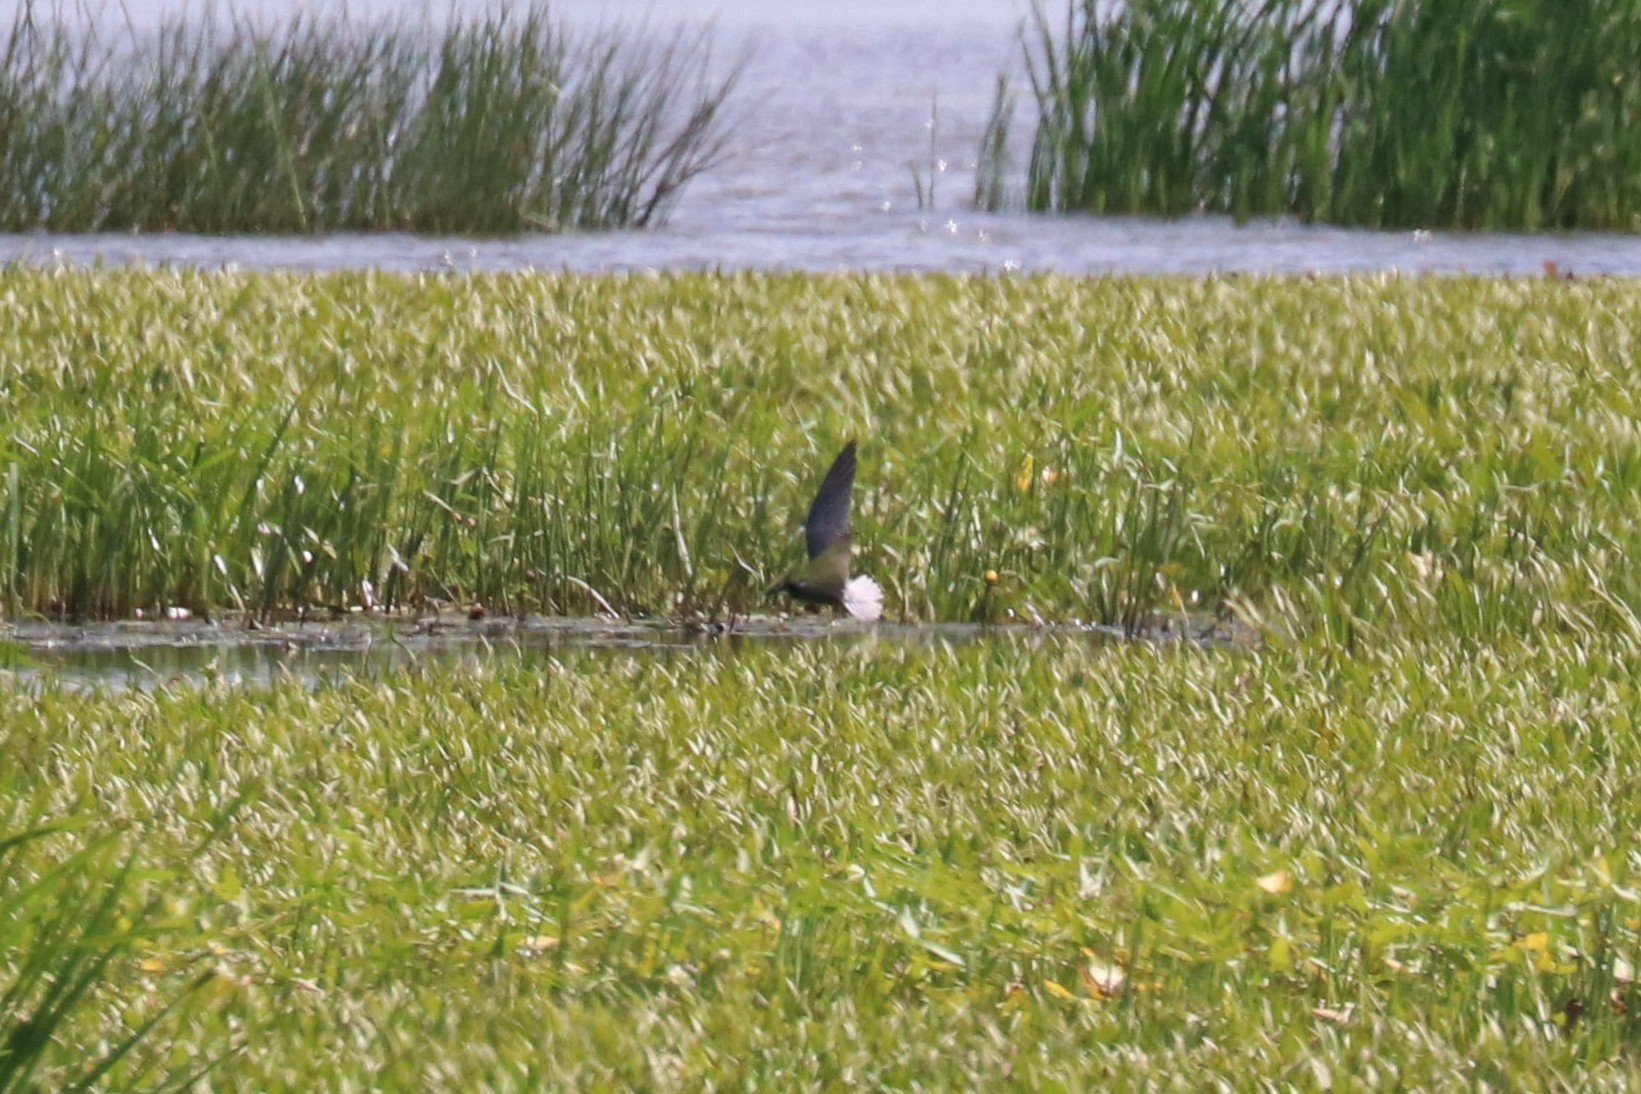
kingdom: Animalia
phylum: Chordata
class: Aves
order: Charadriiformes
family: Laridae
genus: Chlidonias
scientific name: Chlidonias niger
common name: Black tern
